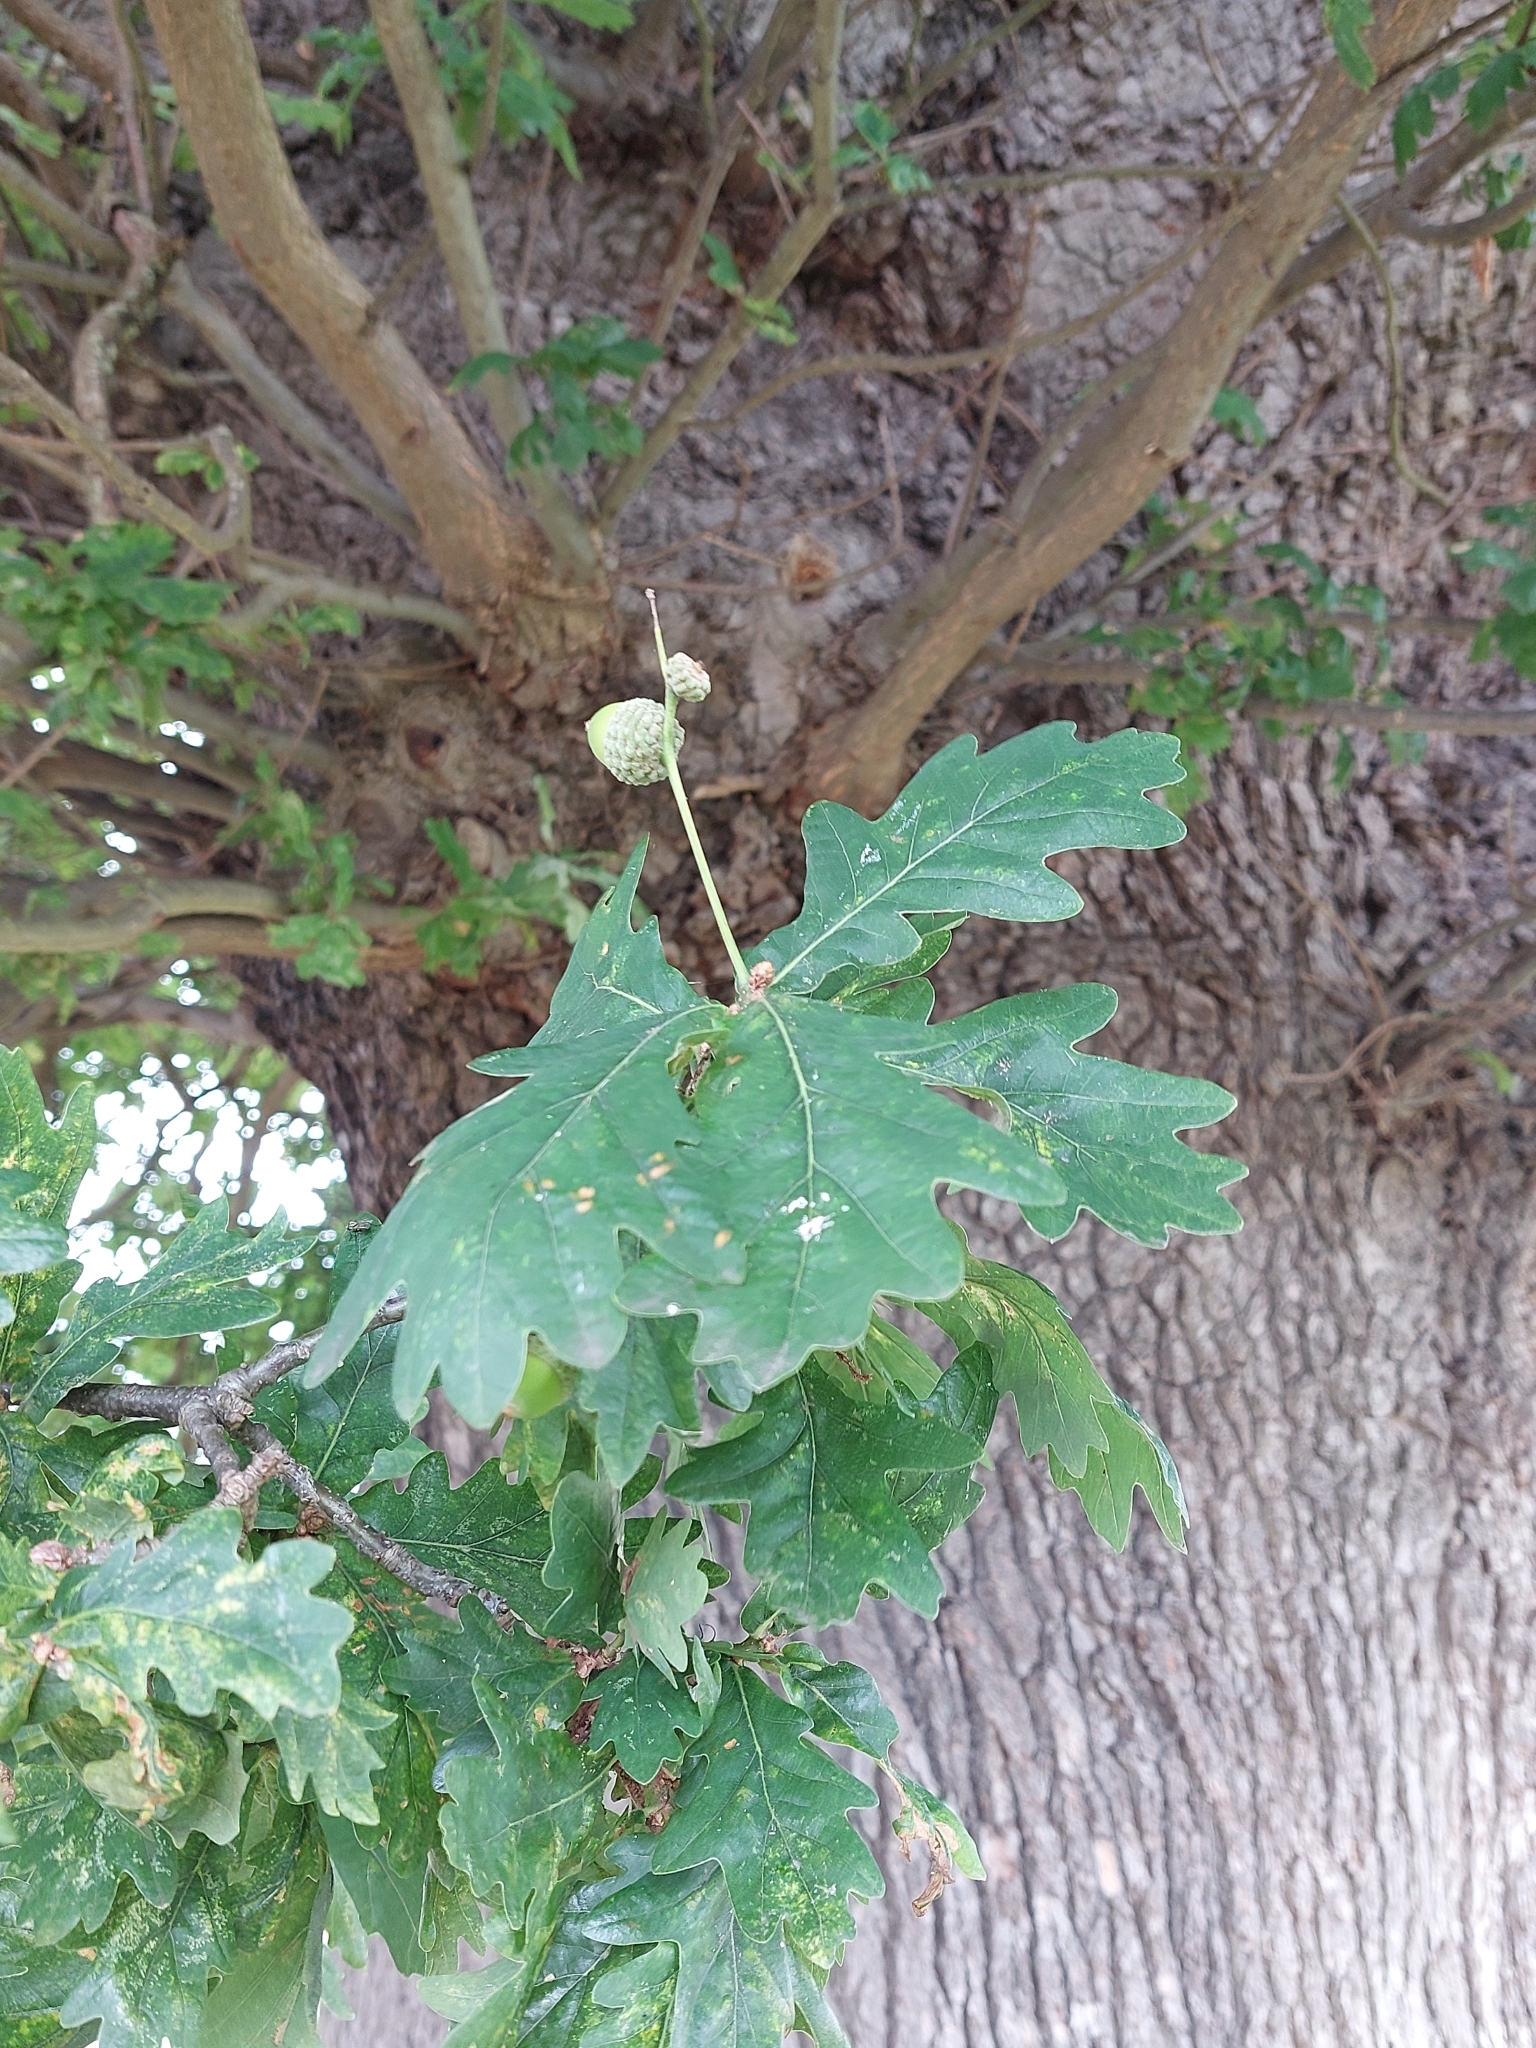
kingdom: Plantae
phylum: Tracheophyta
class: Magnoliopsida
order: Fagales
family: Fagaceae
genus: Quercus
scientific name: Quercus robur
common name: Pedunculate oak
